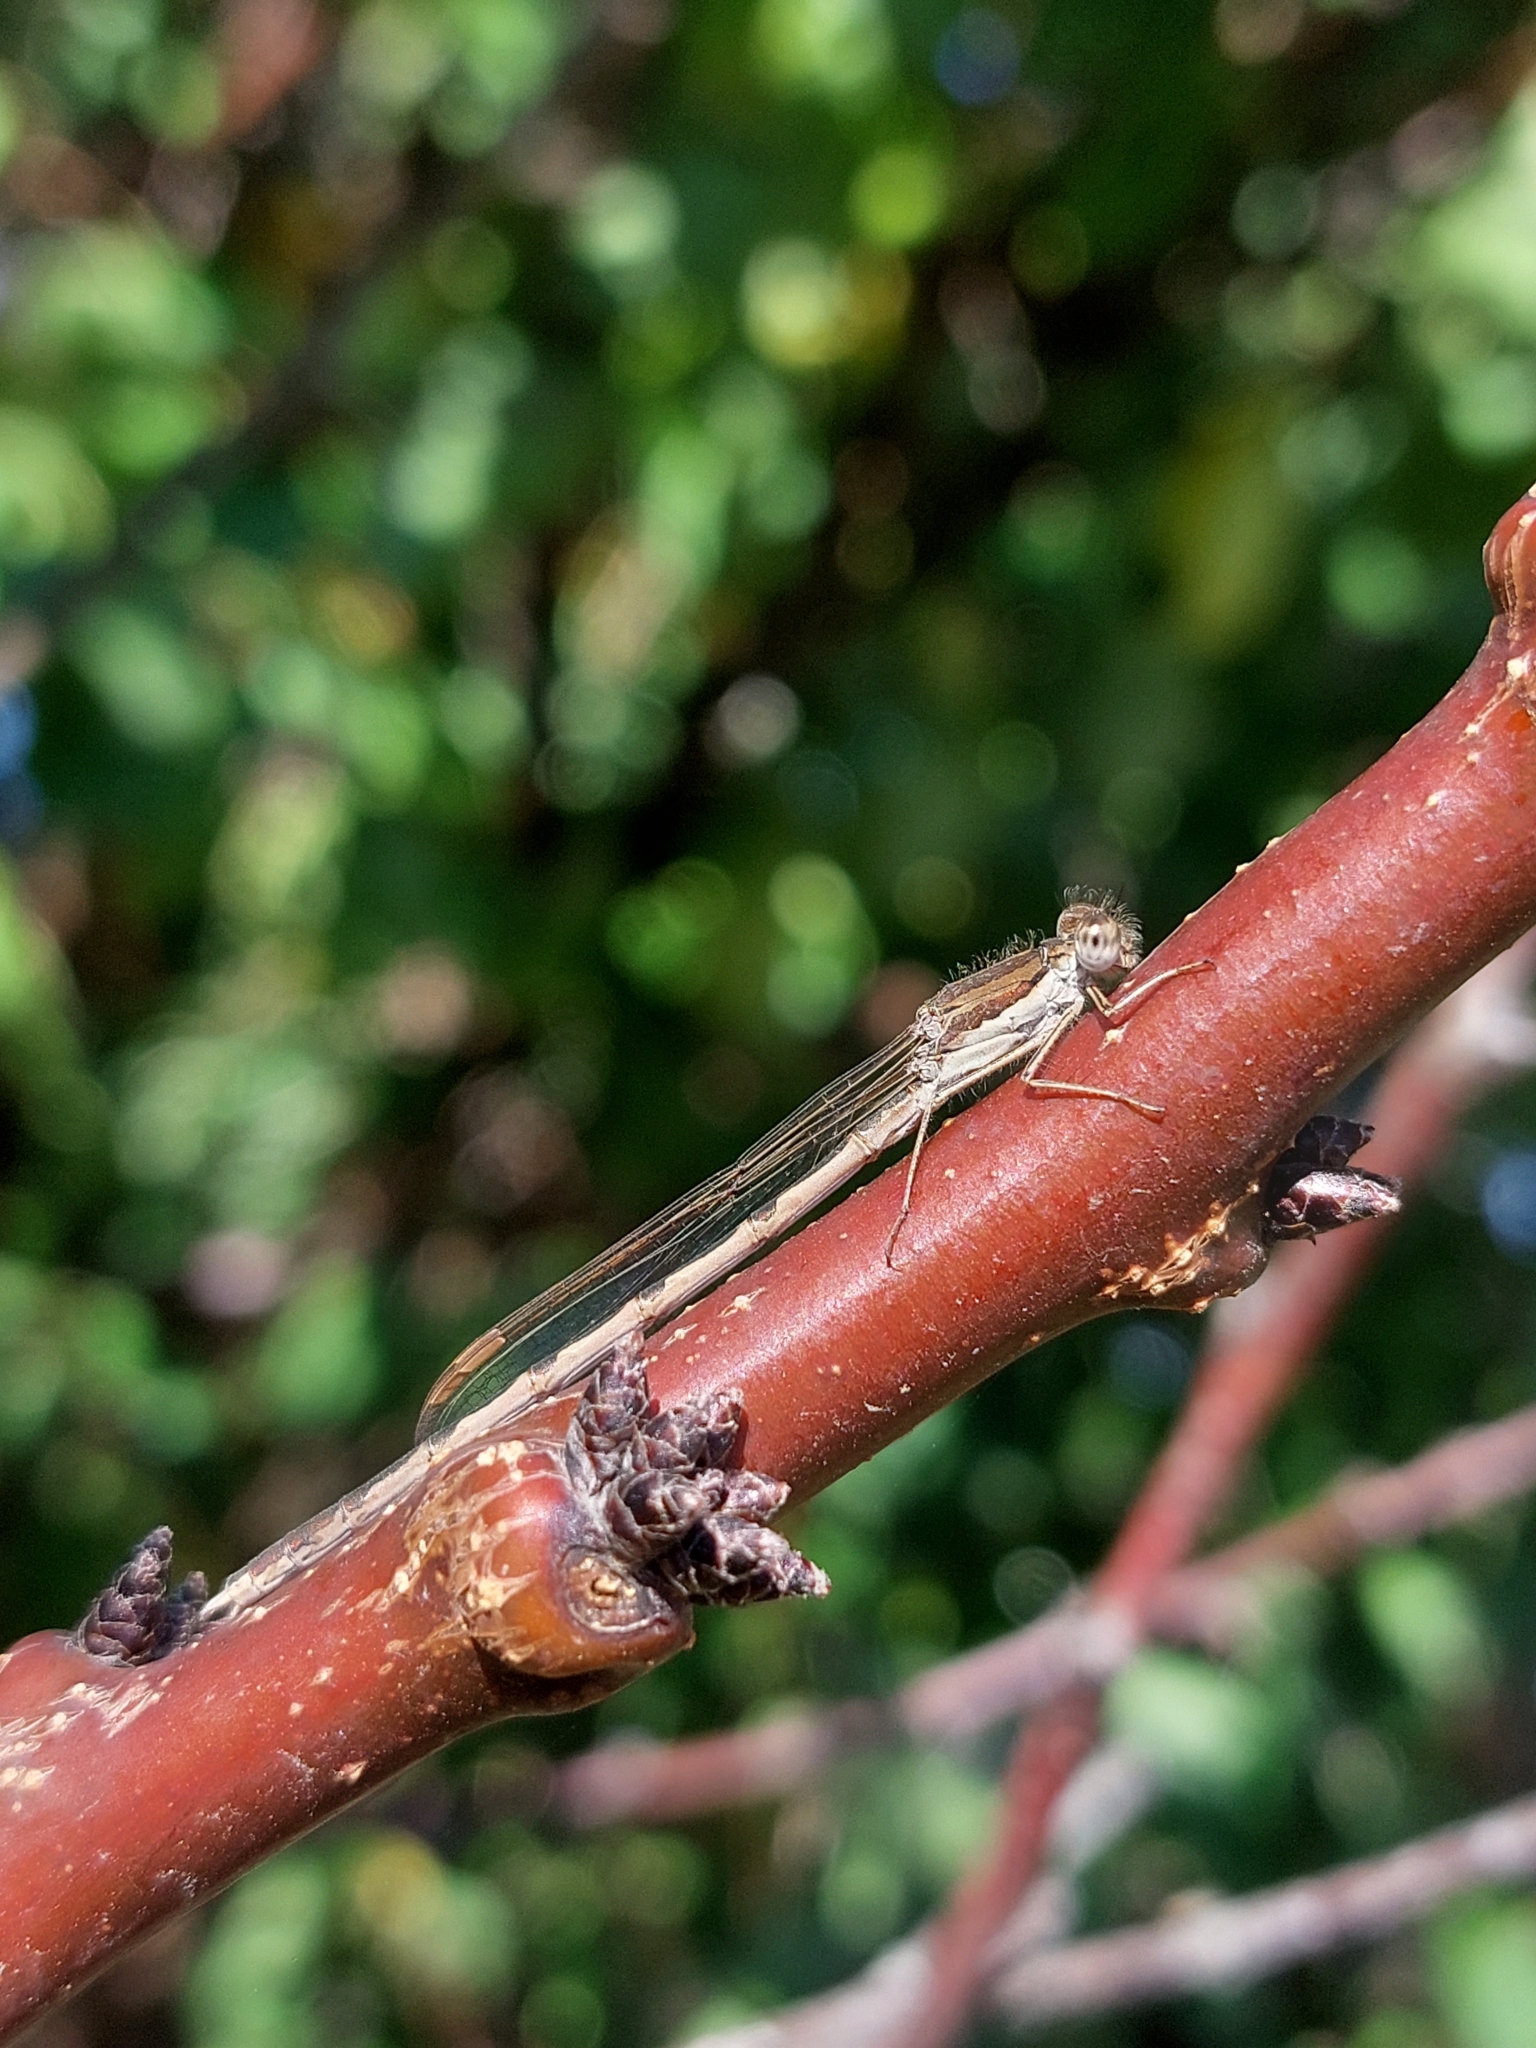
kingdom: Animalia
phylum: Arthropoda
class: Insecta
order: Odonata
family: Lestidae
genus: Sympecma
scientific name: Sympecma fusca
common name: Common winter damsel
